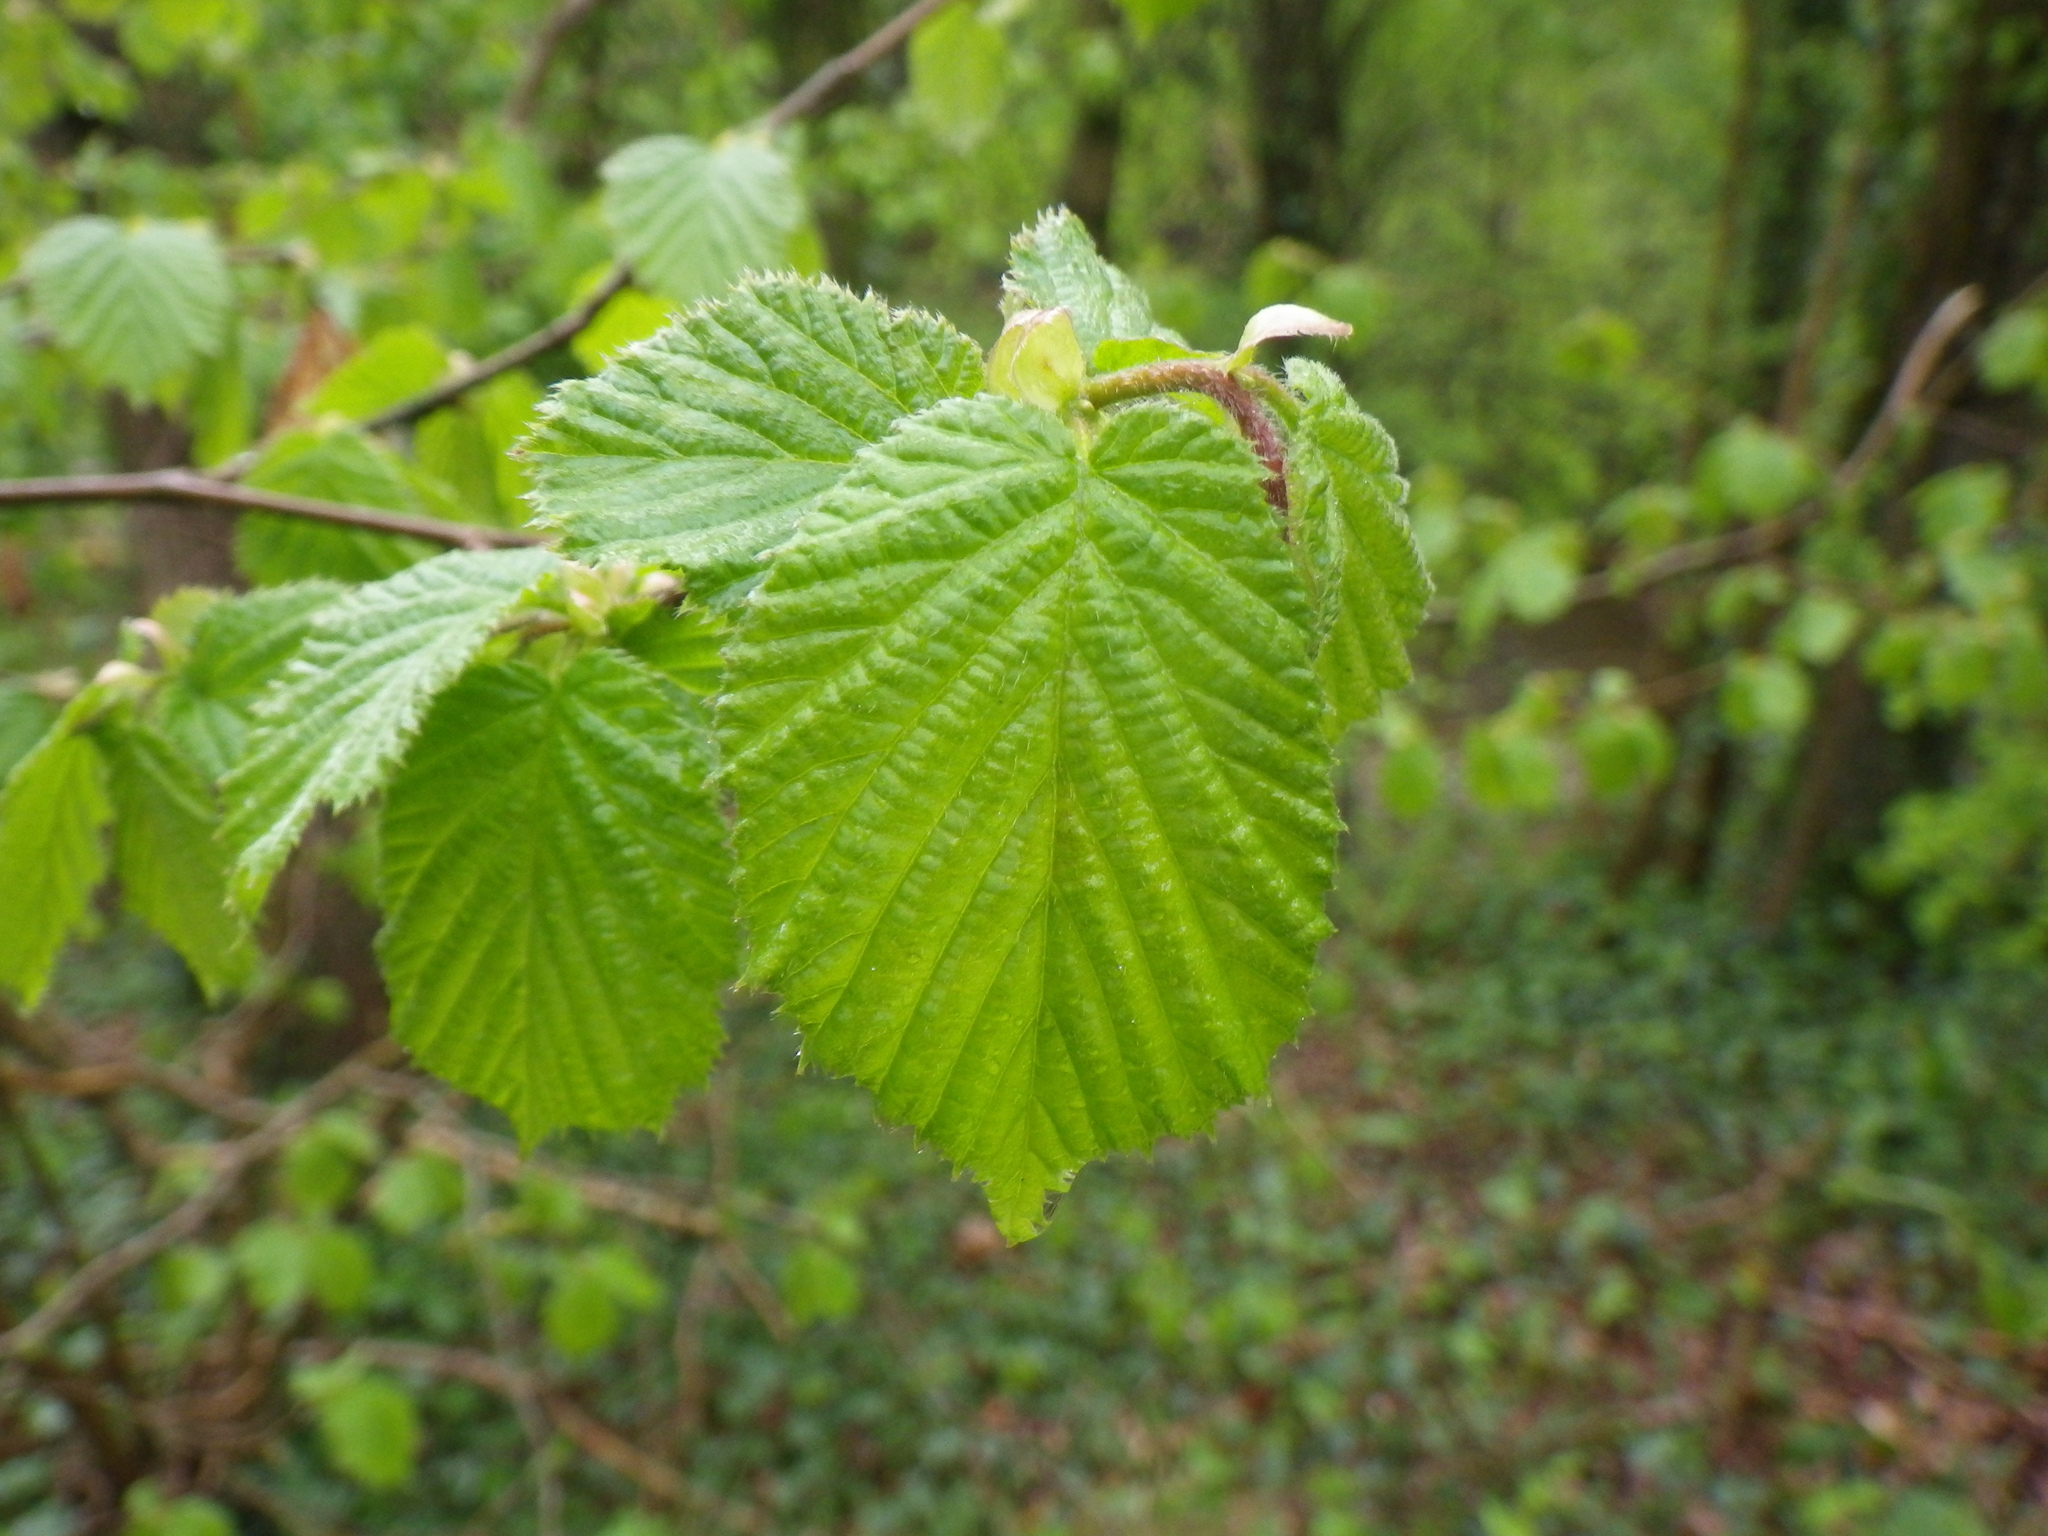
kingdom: Plantae
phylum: Tracheophyta
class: Magnoliopsida
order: Fagales
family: Betulaceae
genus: Corylus
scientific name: Corylus avellana
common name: European hazel
